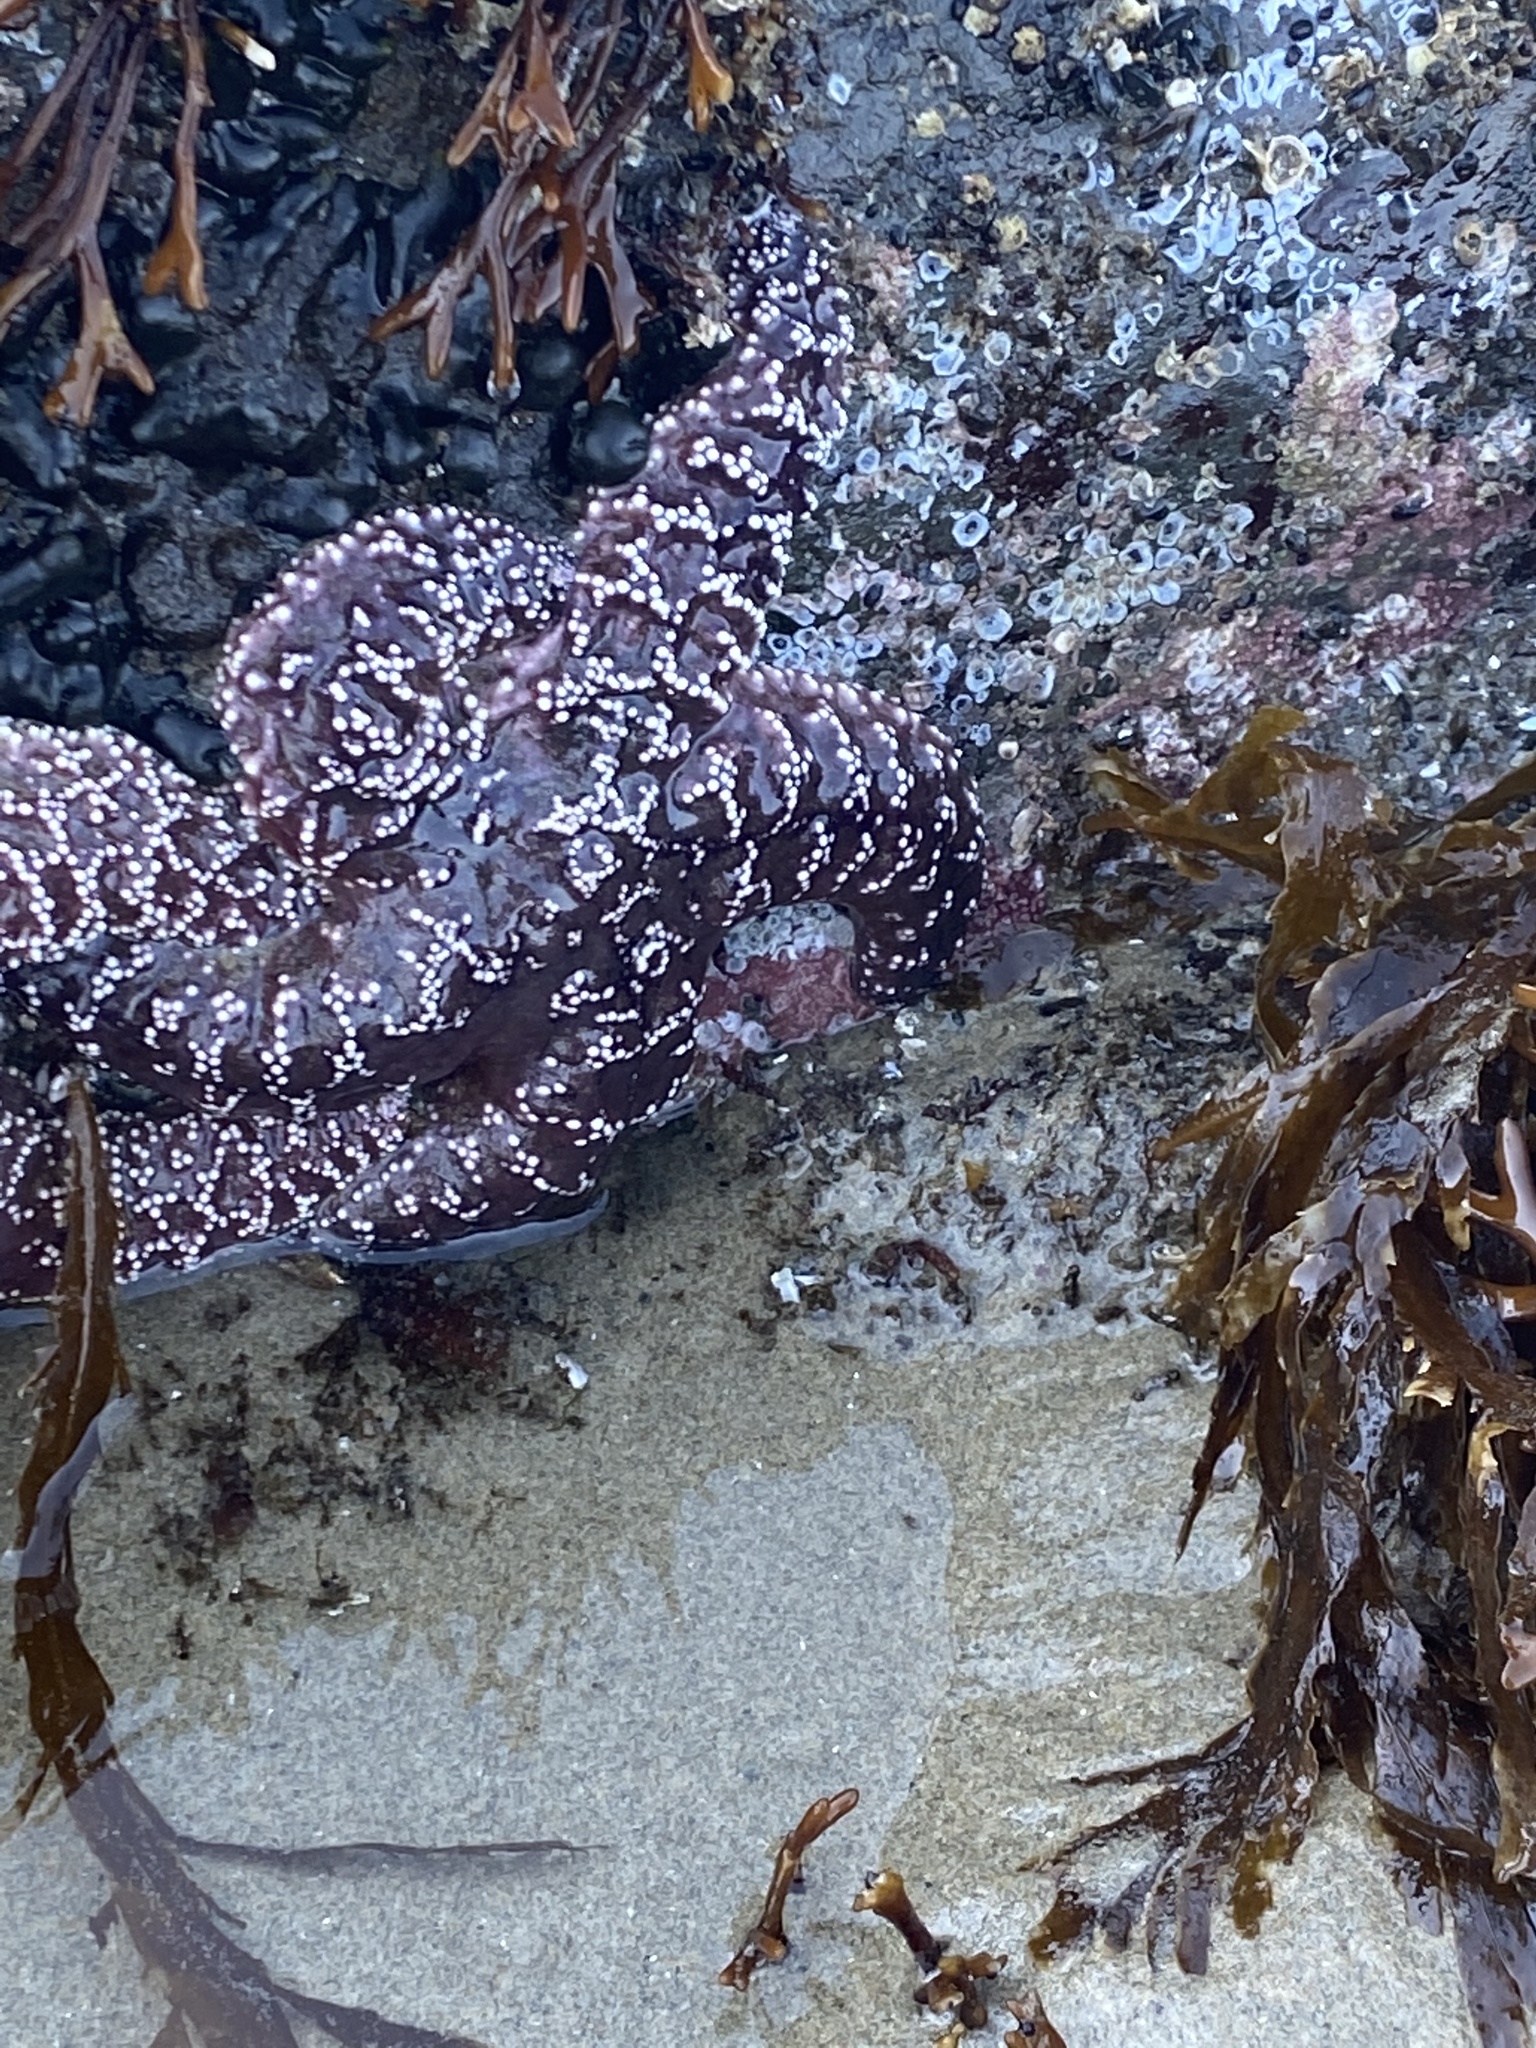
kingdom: Animalia
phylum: Echinodermata
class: Asteroidea
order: Forcipulatida
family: Asteriidae
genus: Pisaster
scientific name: Pisaster ochraceus
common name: Ochre stars
